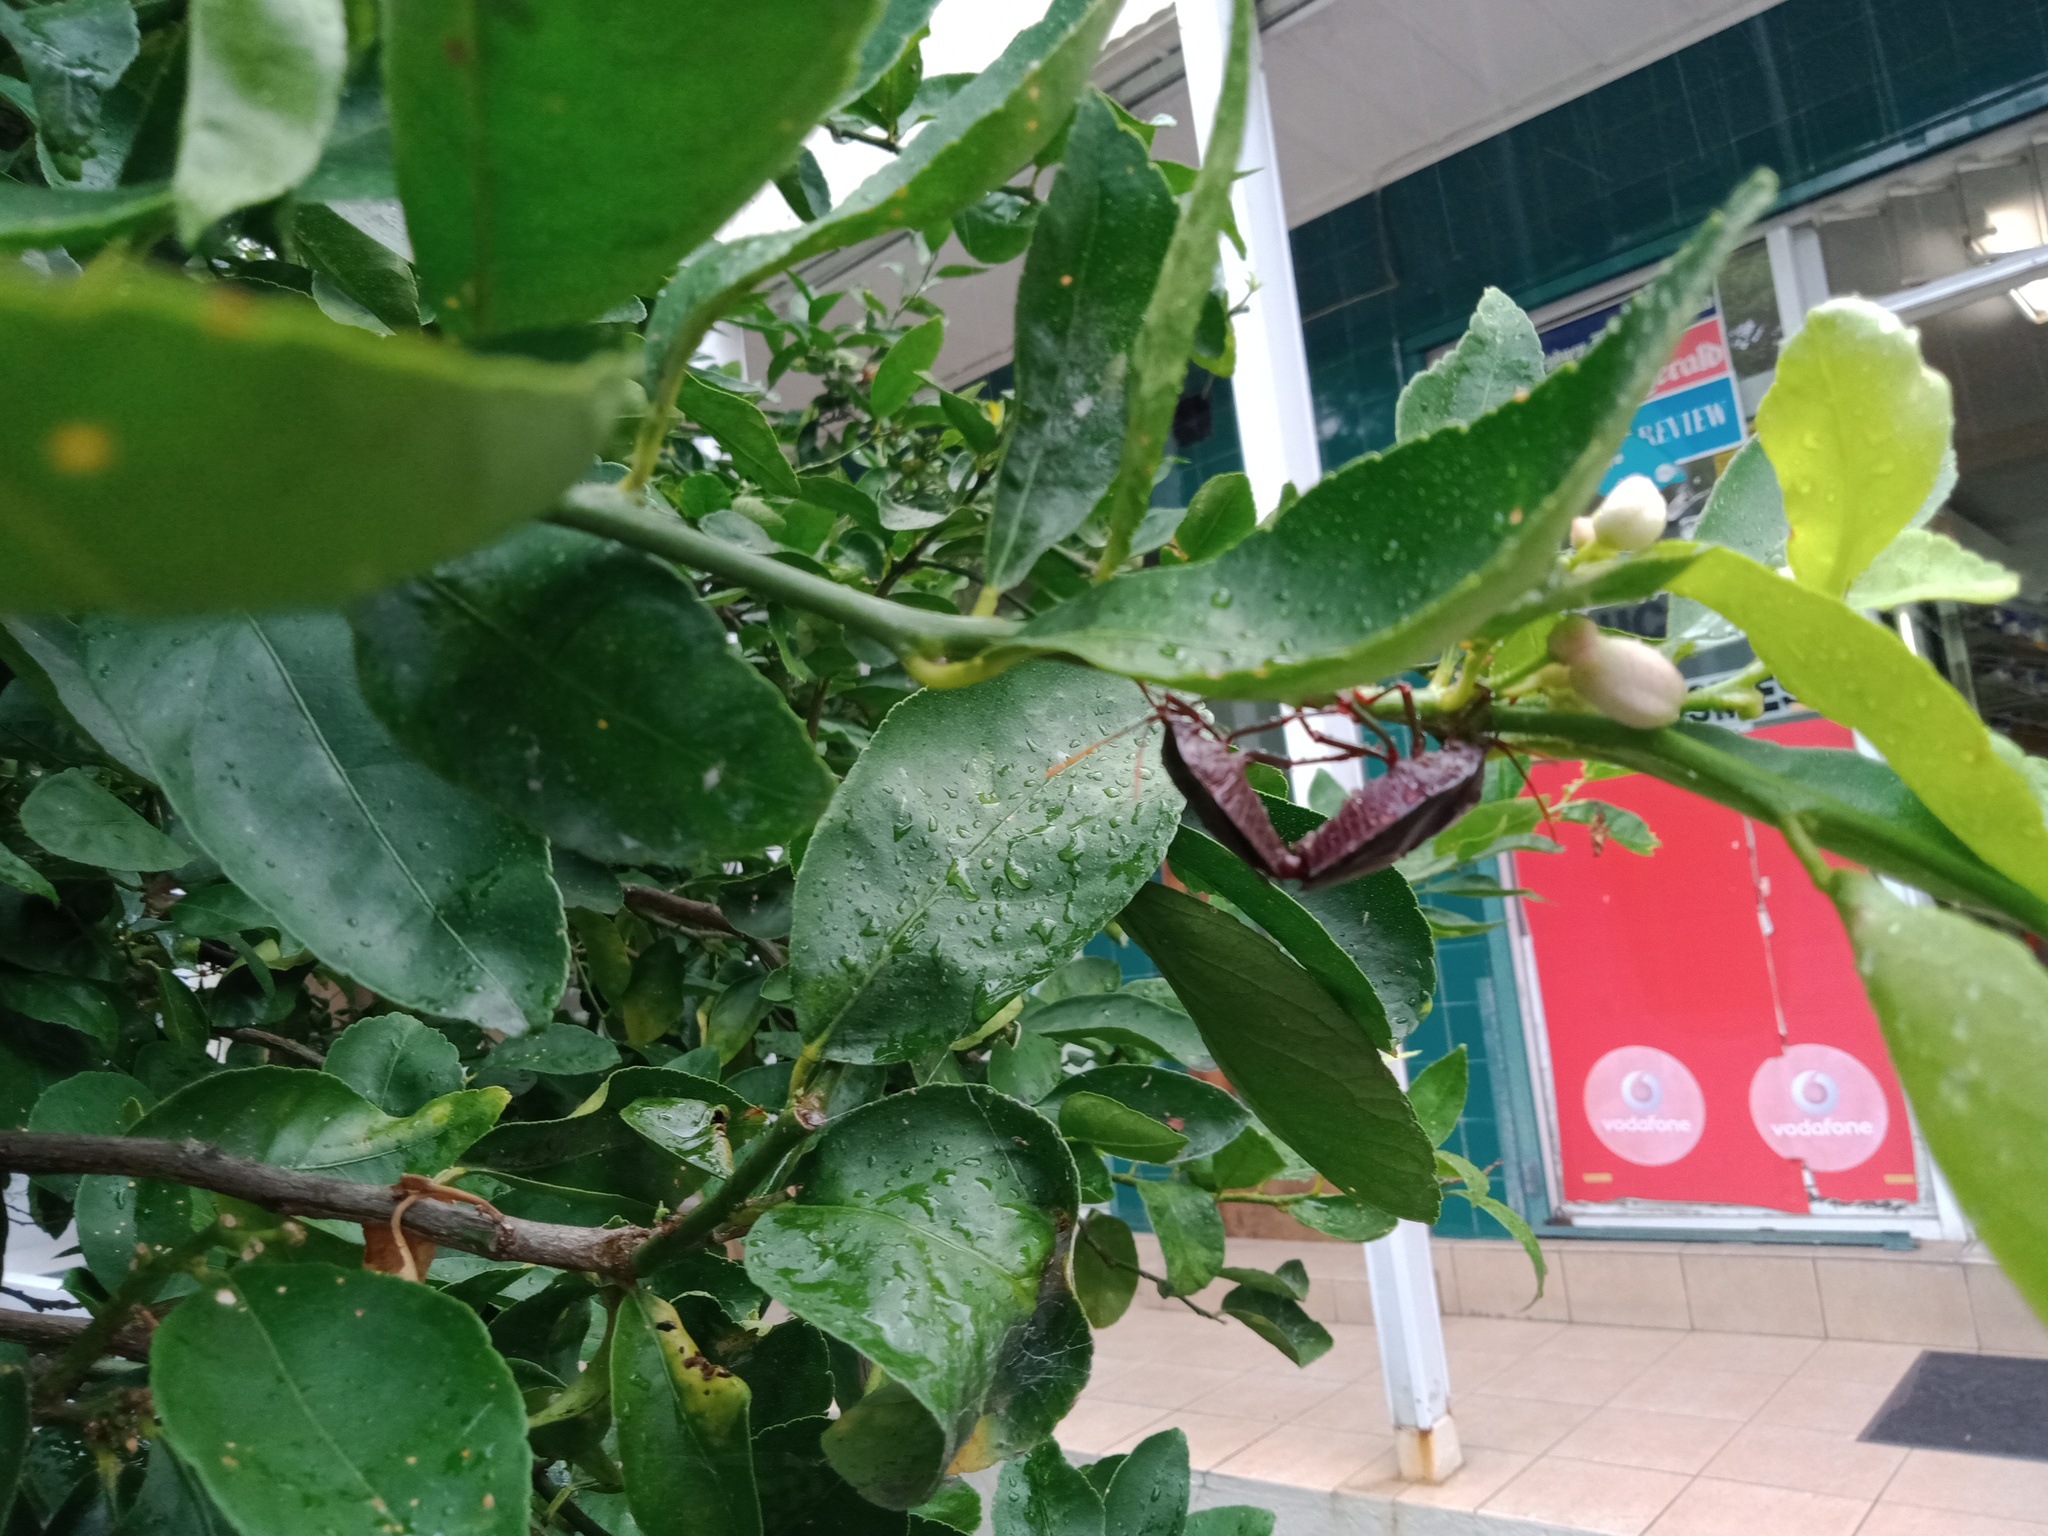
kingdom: Animalia
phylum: Arthropoda
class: Insecta
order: Hemiptera
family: Tessaratomidae
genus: Musgraveia
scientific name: Musgraveia sulciventris
